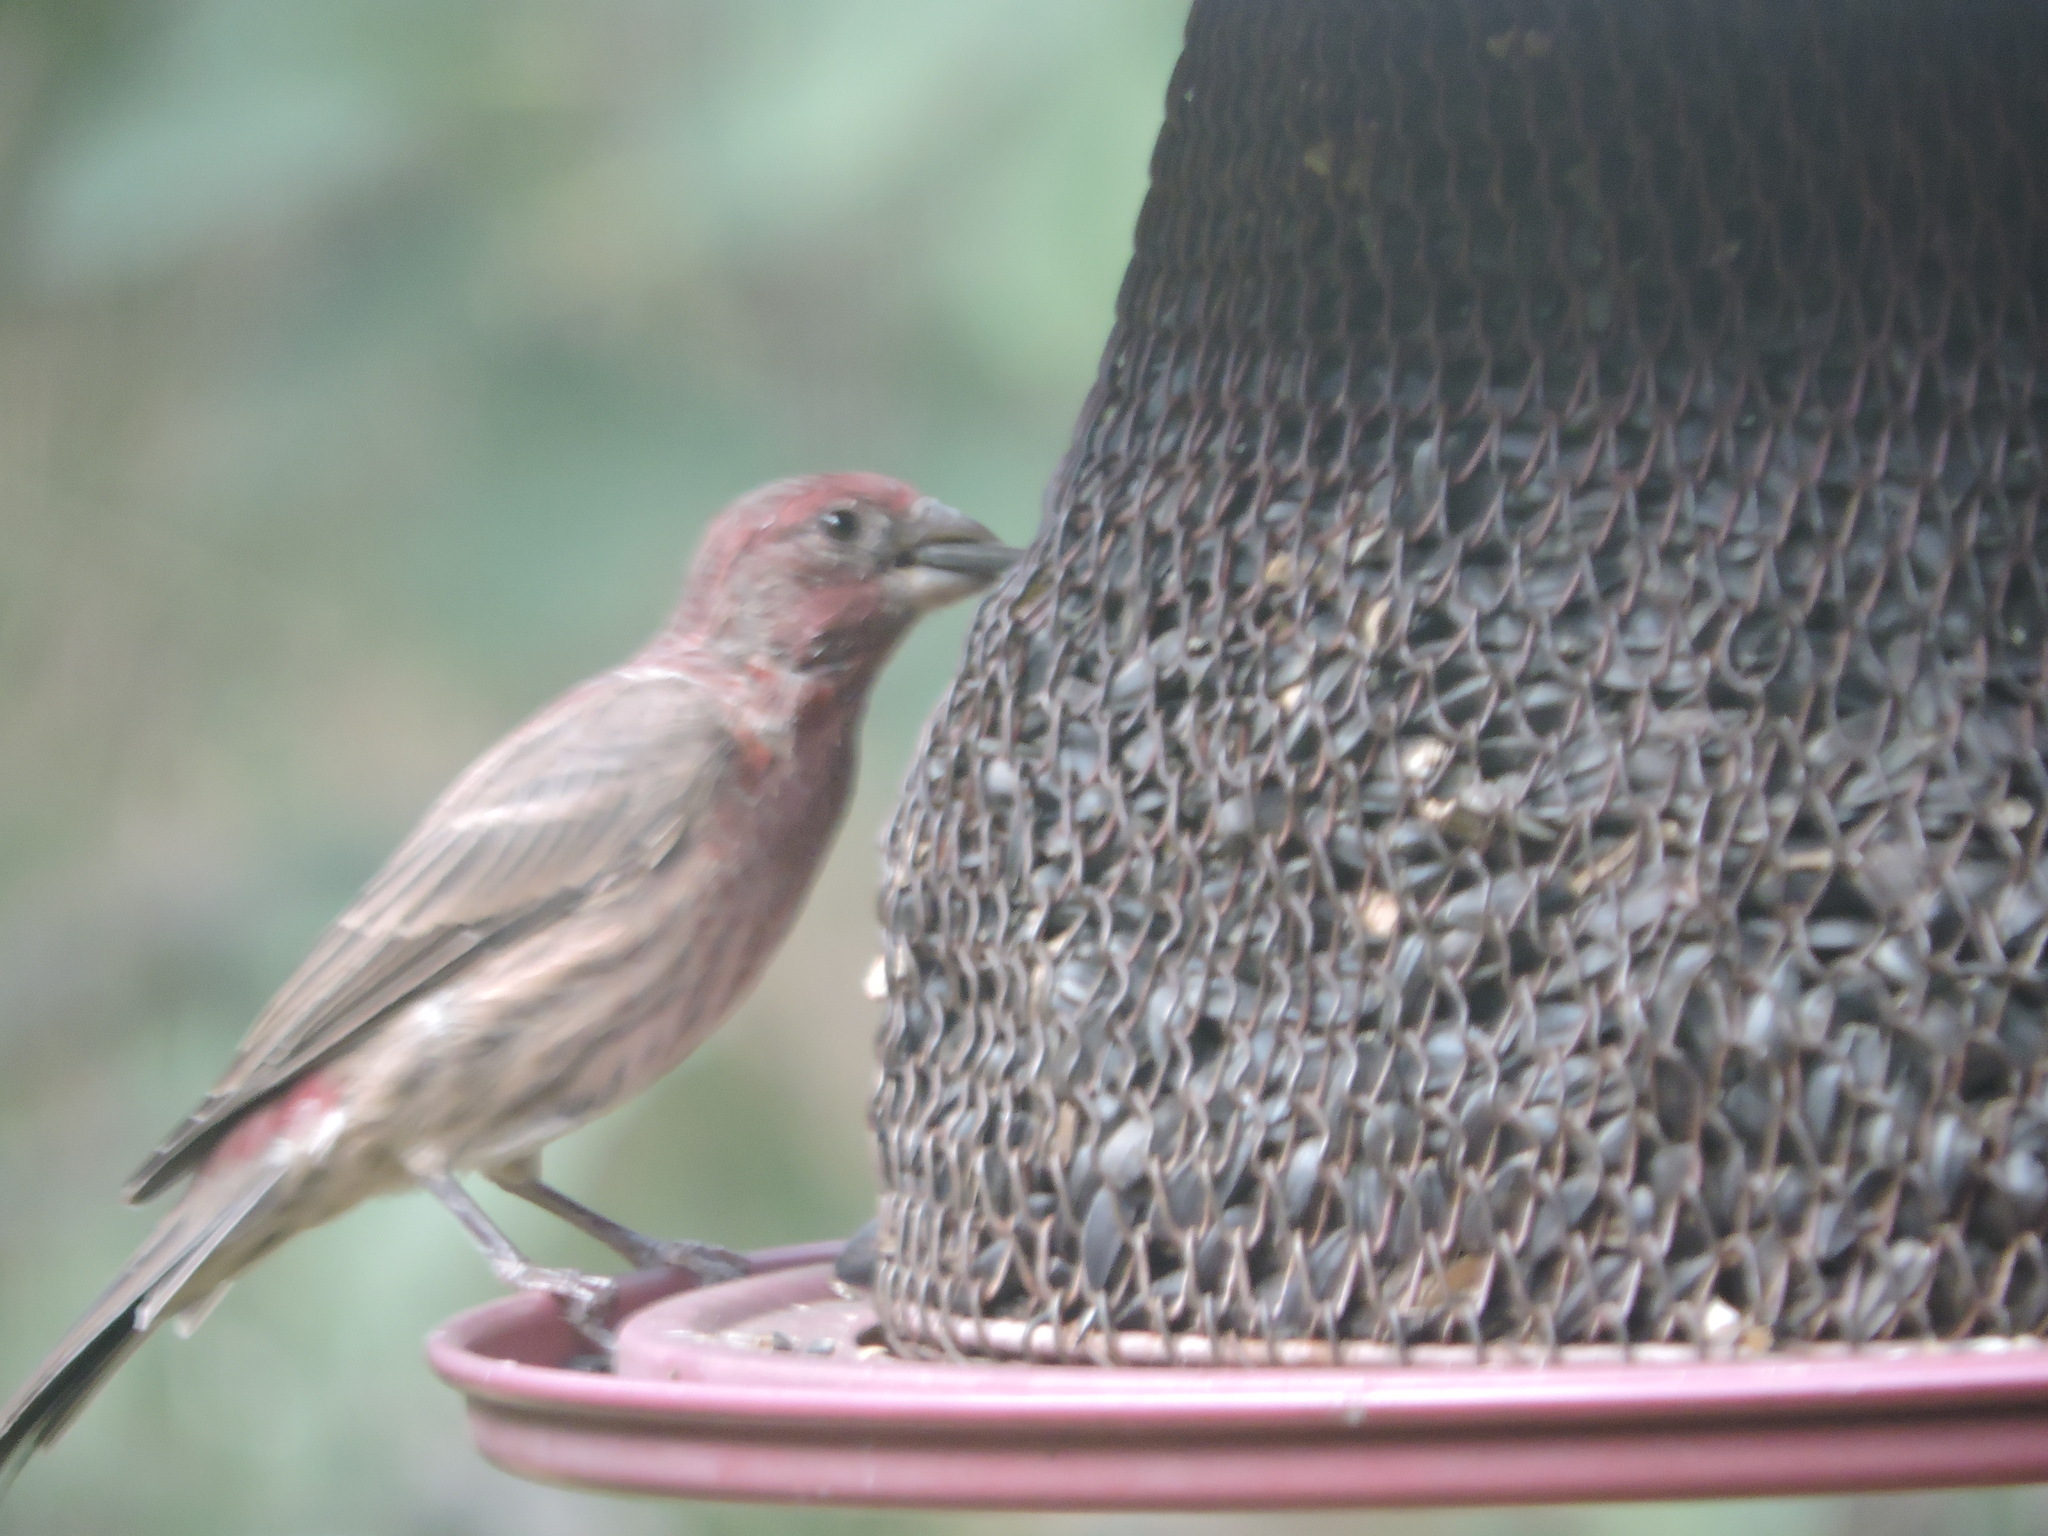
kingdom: Animalia
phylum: Chordata
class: Aves
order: Passeriformes
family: Fringillidae
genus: Haemorhous
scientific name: Haemorhous mexicanus
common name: House finch
